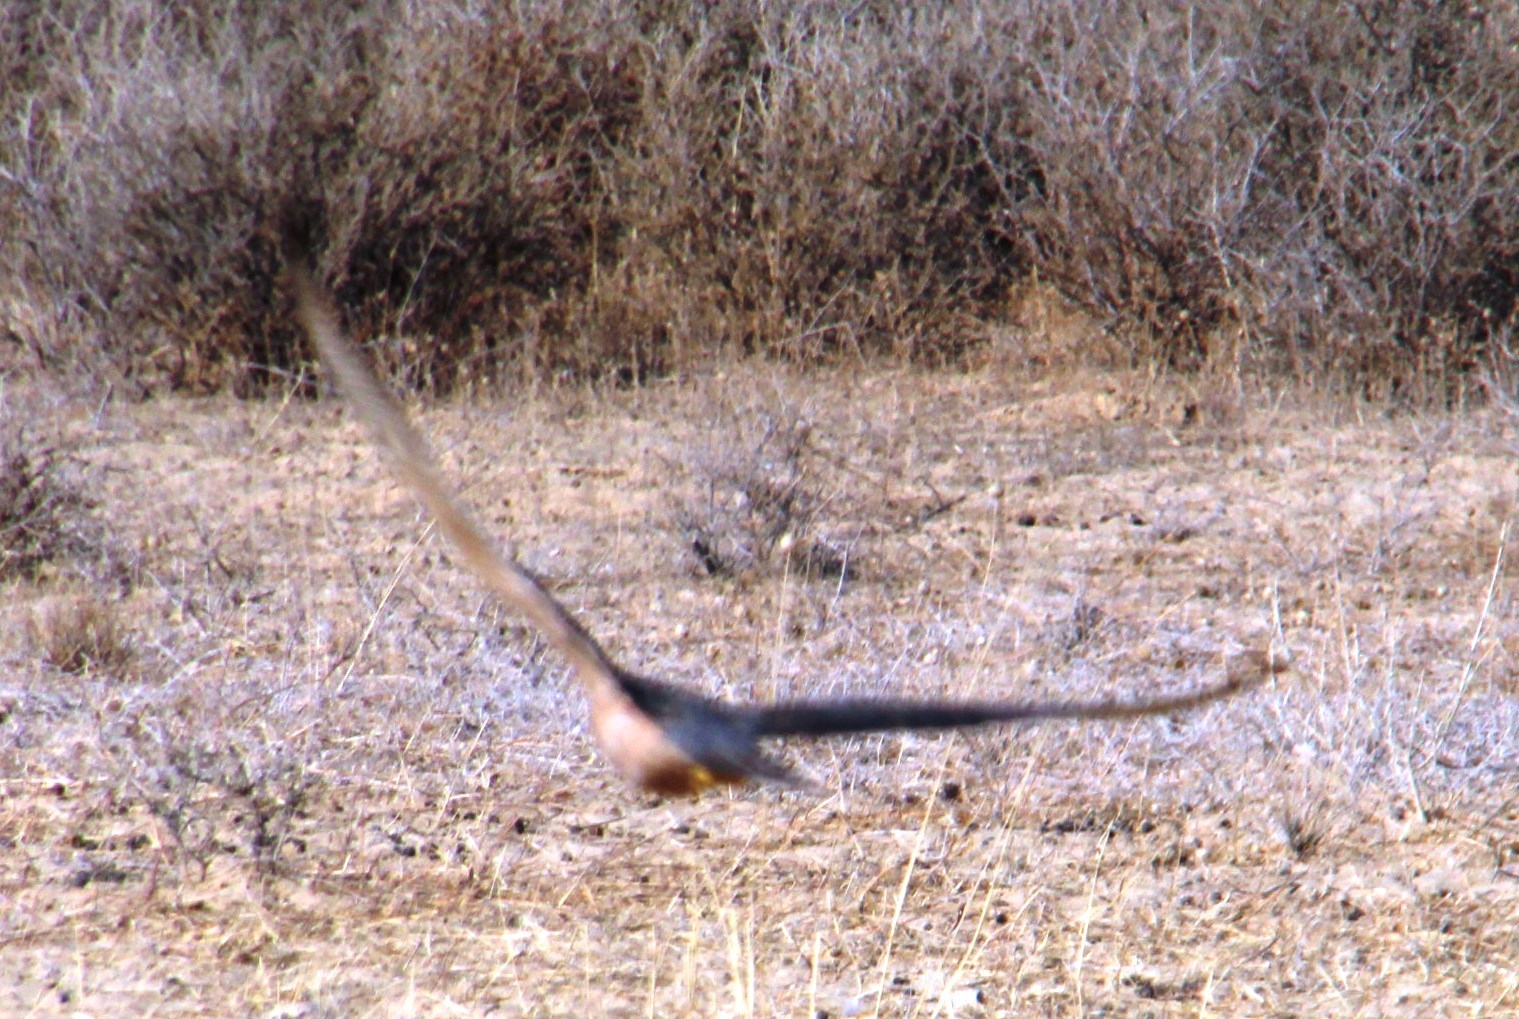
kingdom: Animalia
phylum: Chordata
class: Aves
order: Falconiformes
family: Falconidae
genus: Falco
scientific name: Falco biarmicus
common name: Lanner falcon
